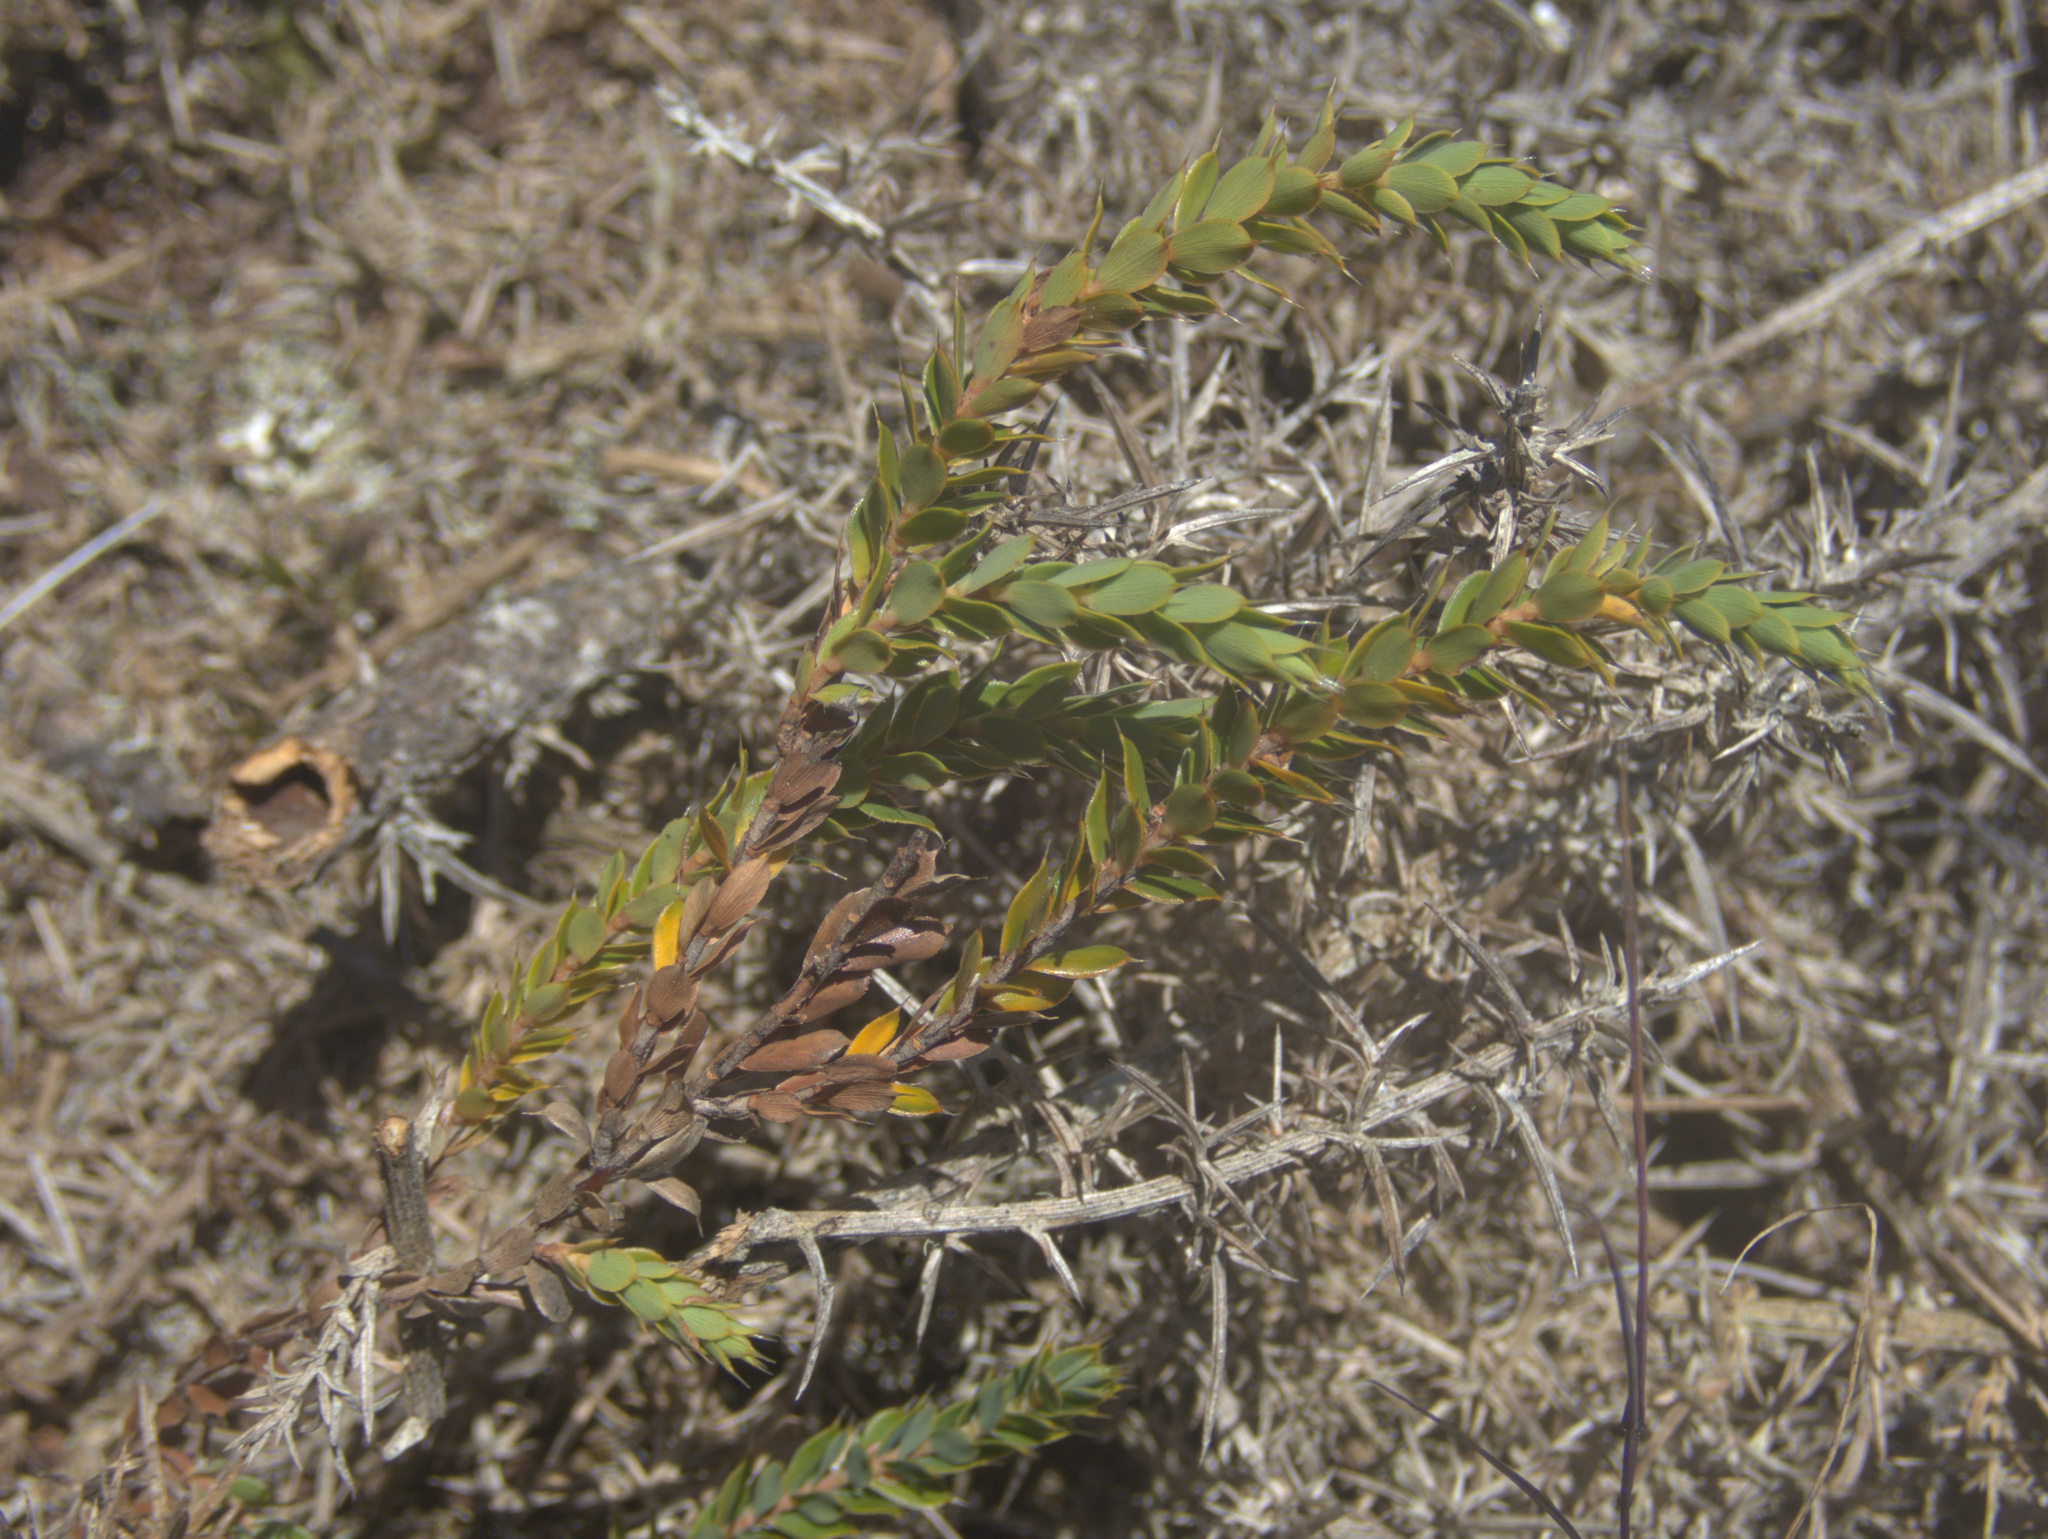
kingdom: Plantae
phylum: Tracheophyta
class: Magnoliopsida
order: Ericales
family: Ericaceae
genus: Styphelia
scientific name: Styphelia nesophila
